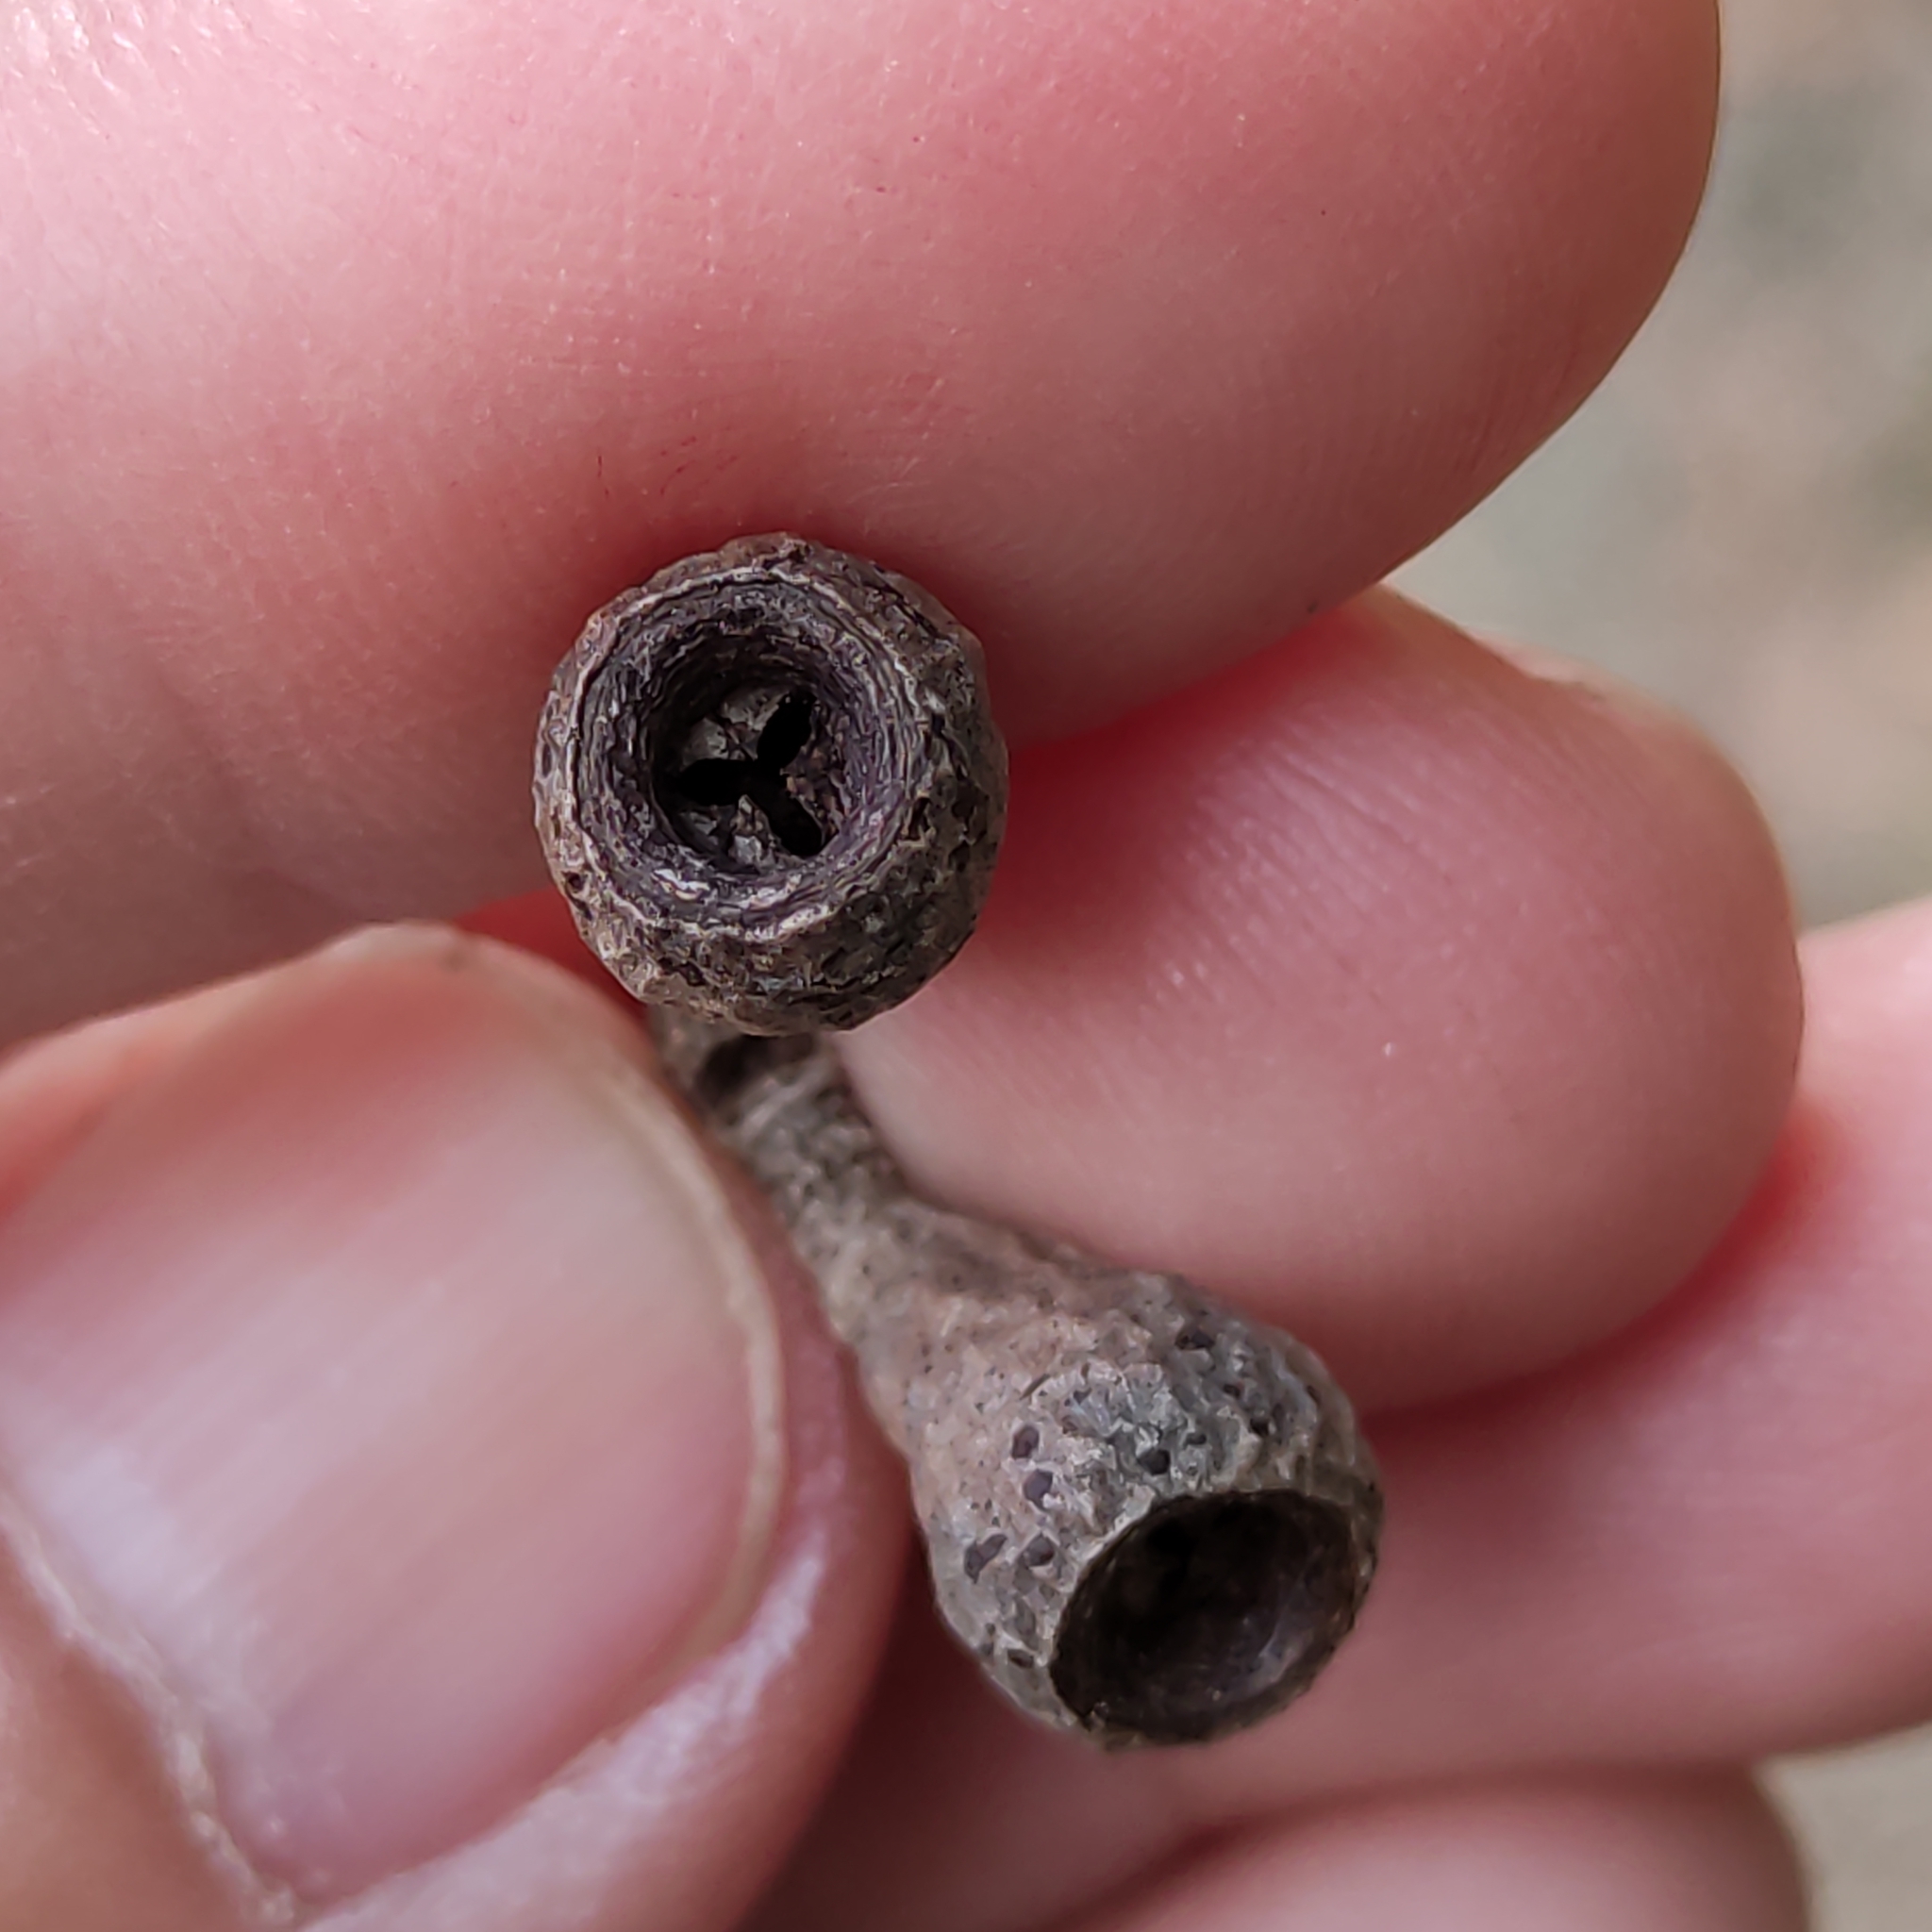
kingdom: Plantae
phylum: Tracheophyta
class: Magnoliopsida
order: Myrtales
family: Myrtaceae
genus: Eucalyptus
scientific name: Eucalyptus regnans
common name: Stringy gum
